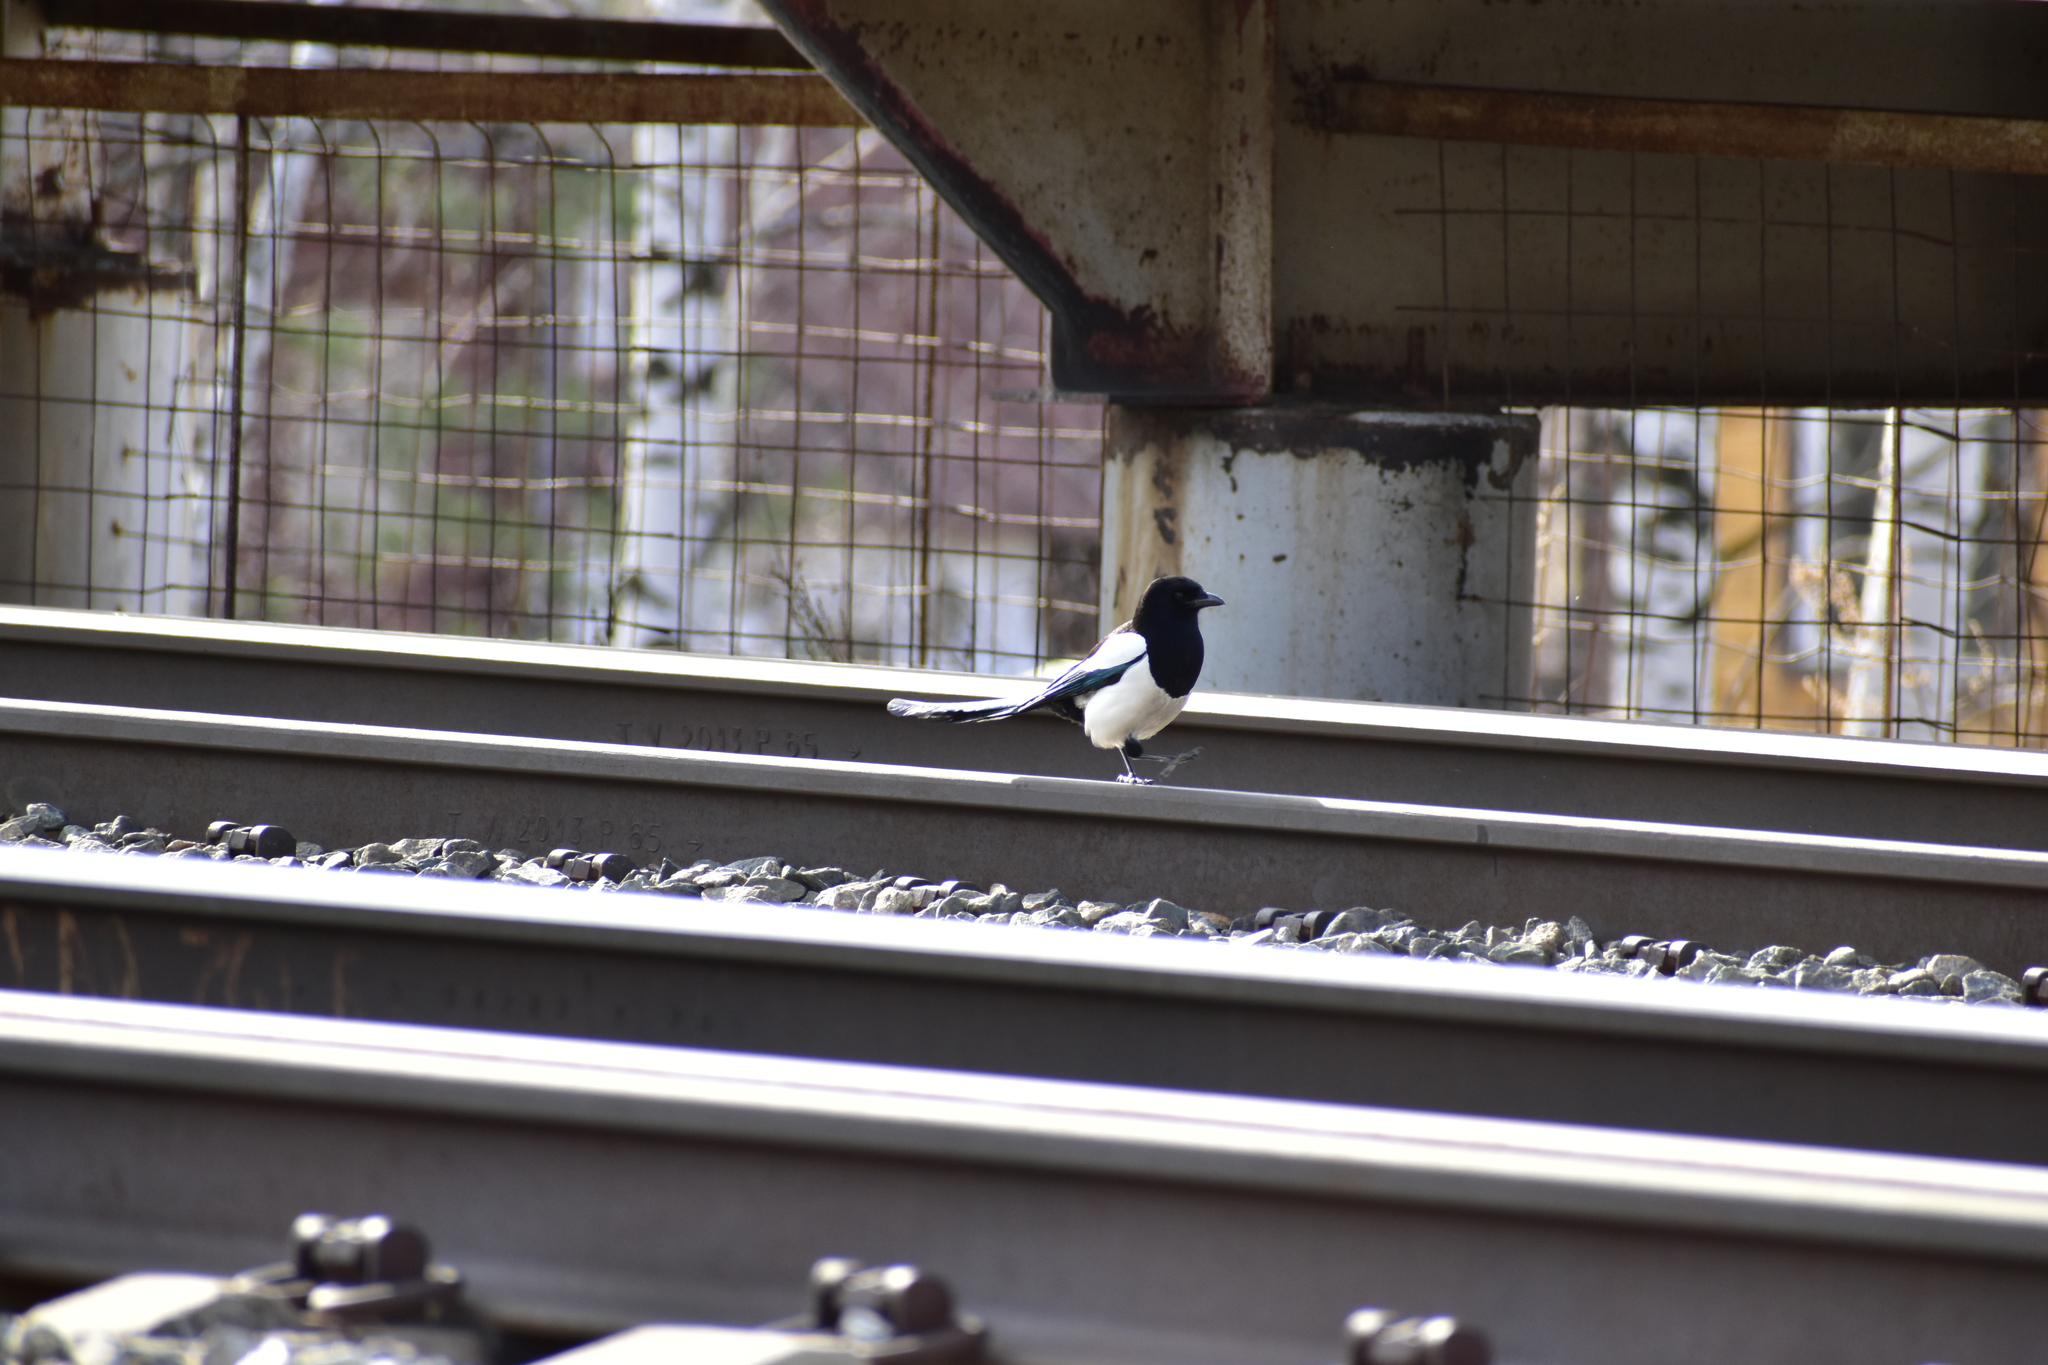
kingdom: Animalia
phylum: Chordata
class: Aves
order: Passeriformes
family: Corvidae
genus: Pica
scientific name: Pica pica
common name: Eurasian magpie
